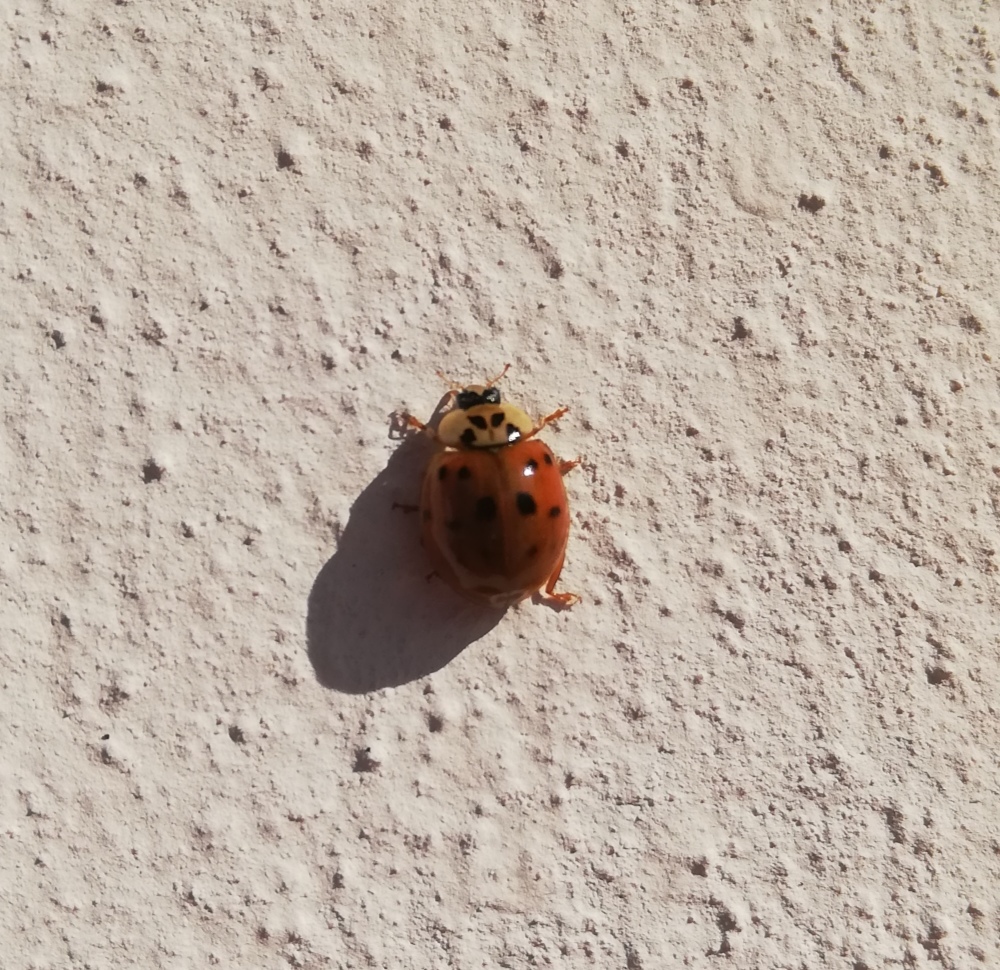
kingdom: Animalia
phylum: Arthropoda
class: Insecta
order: Coleoptera
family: Coccinellidae
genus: Harmonia
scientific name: Harmonia axyridis
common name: Harlequin ladybird
